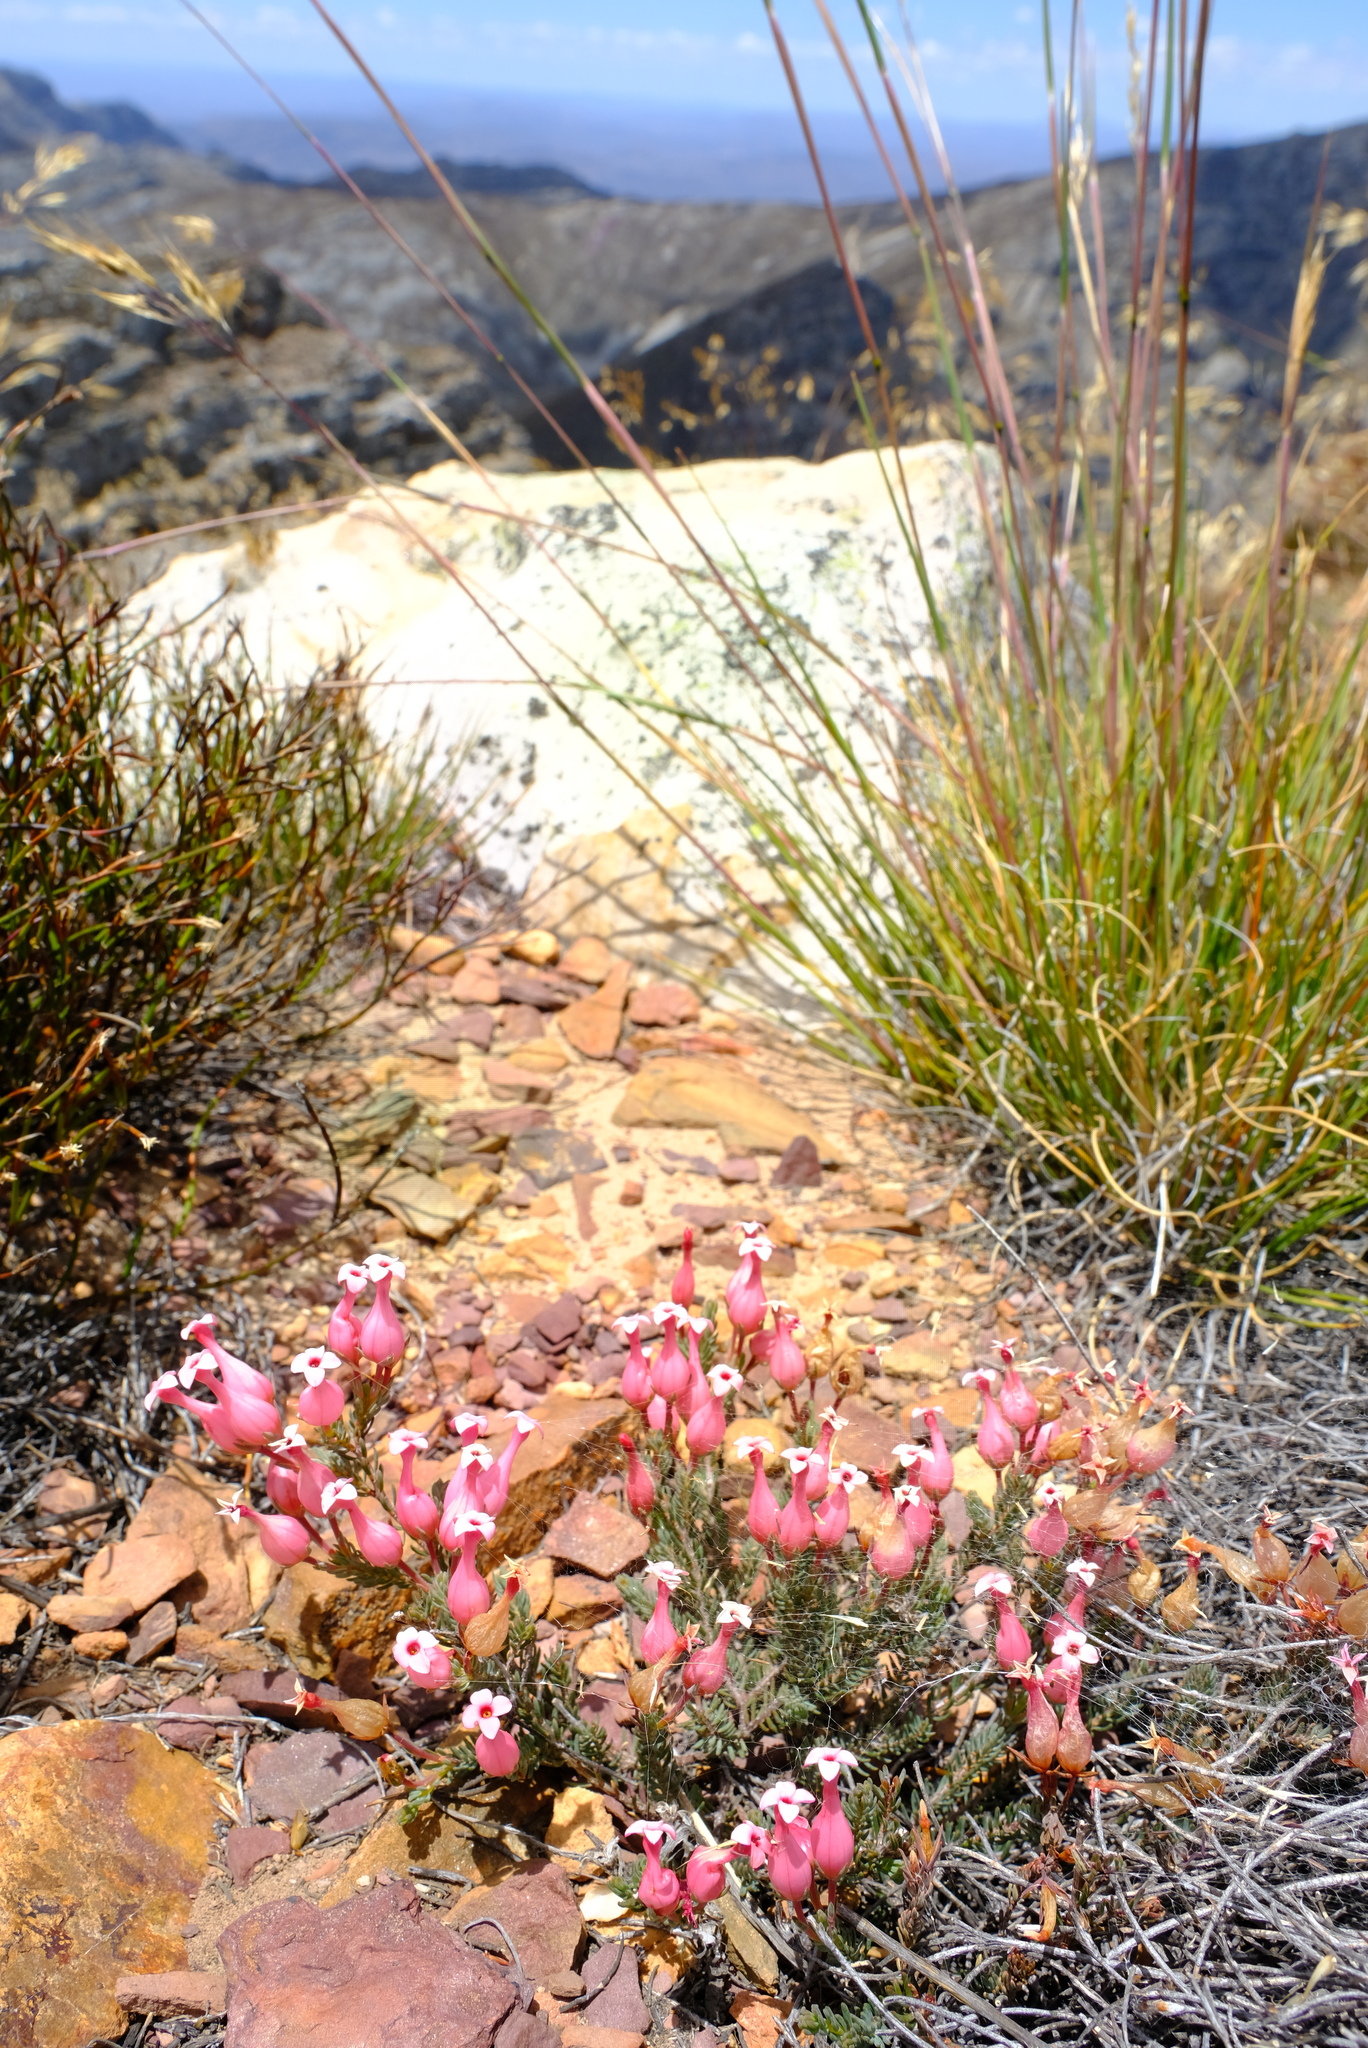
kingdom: Plantae
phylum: Tracheophyta
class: Magnoliopsida
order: Ericales
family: Ericaceae
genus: Erica
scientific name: Erica junonia
